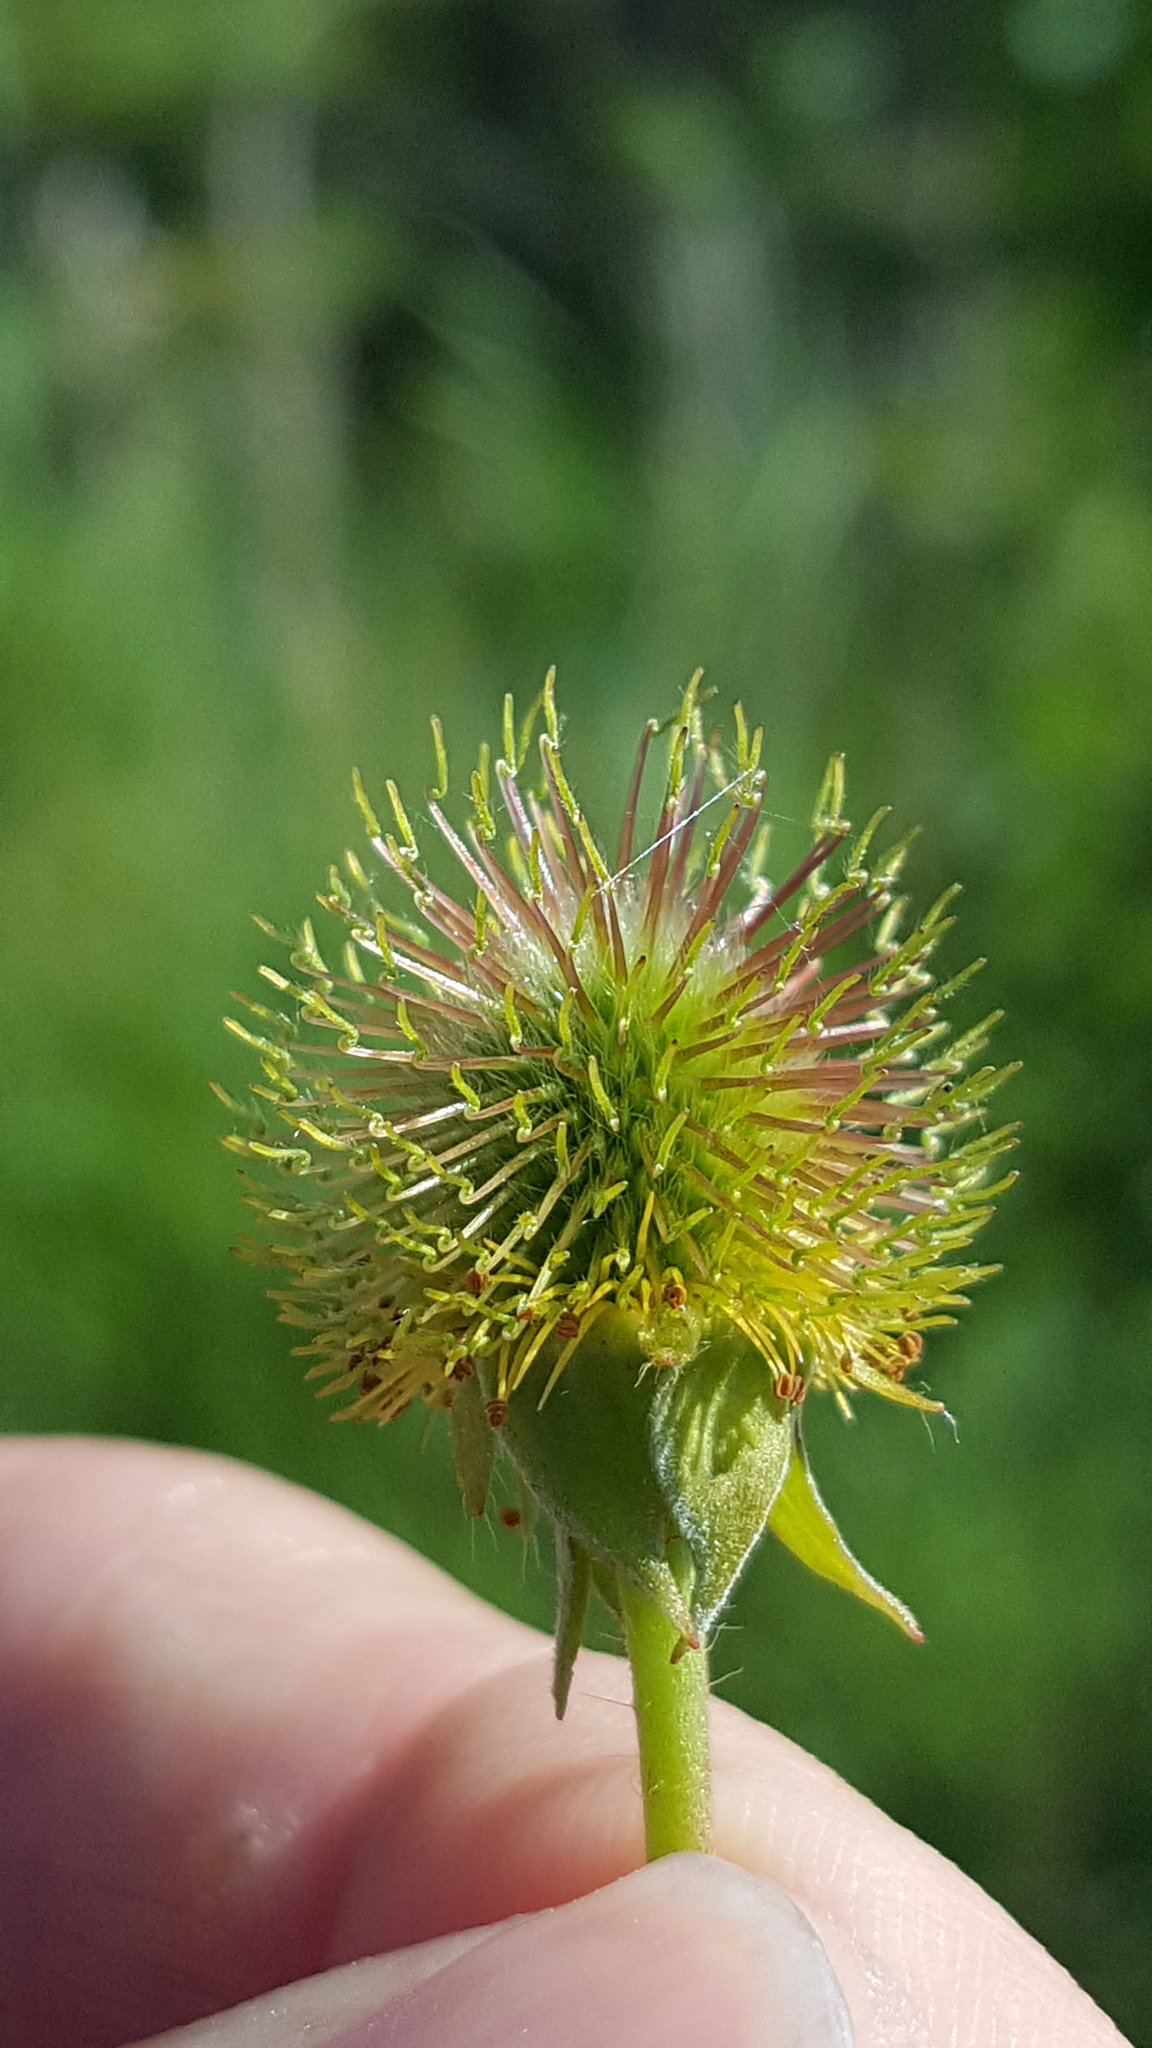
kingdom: Plantae
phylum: Tracheophyta
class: Magnoliopsida
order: Rosales
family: Rosaceae
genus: Geum
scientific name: Geum aleppicum
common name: Yellow avens
